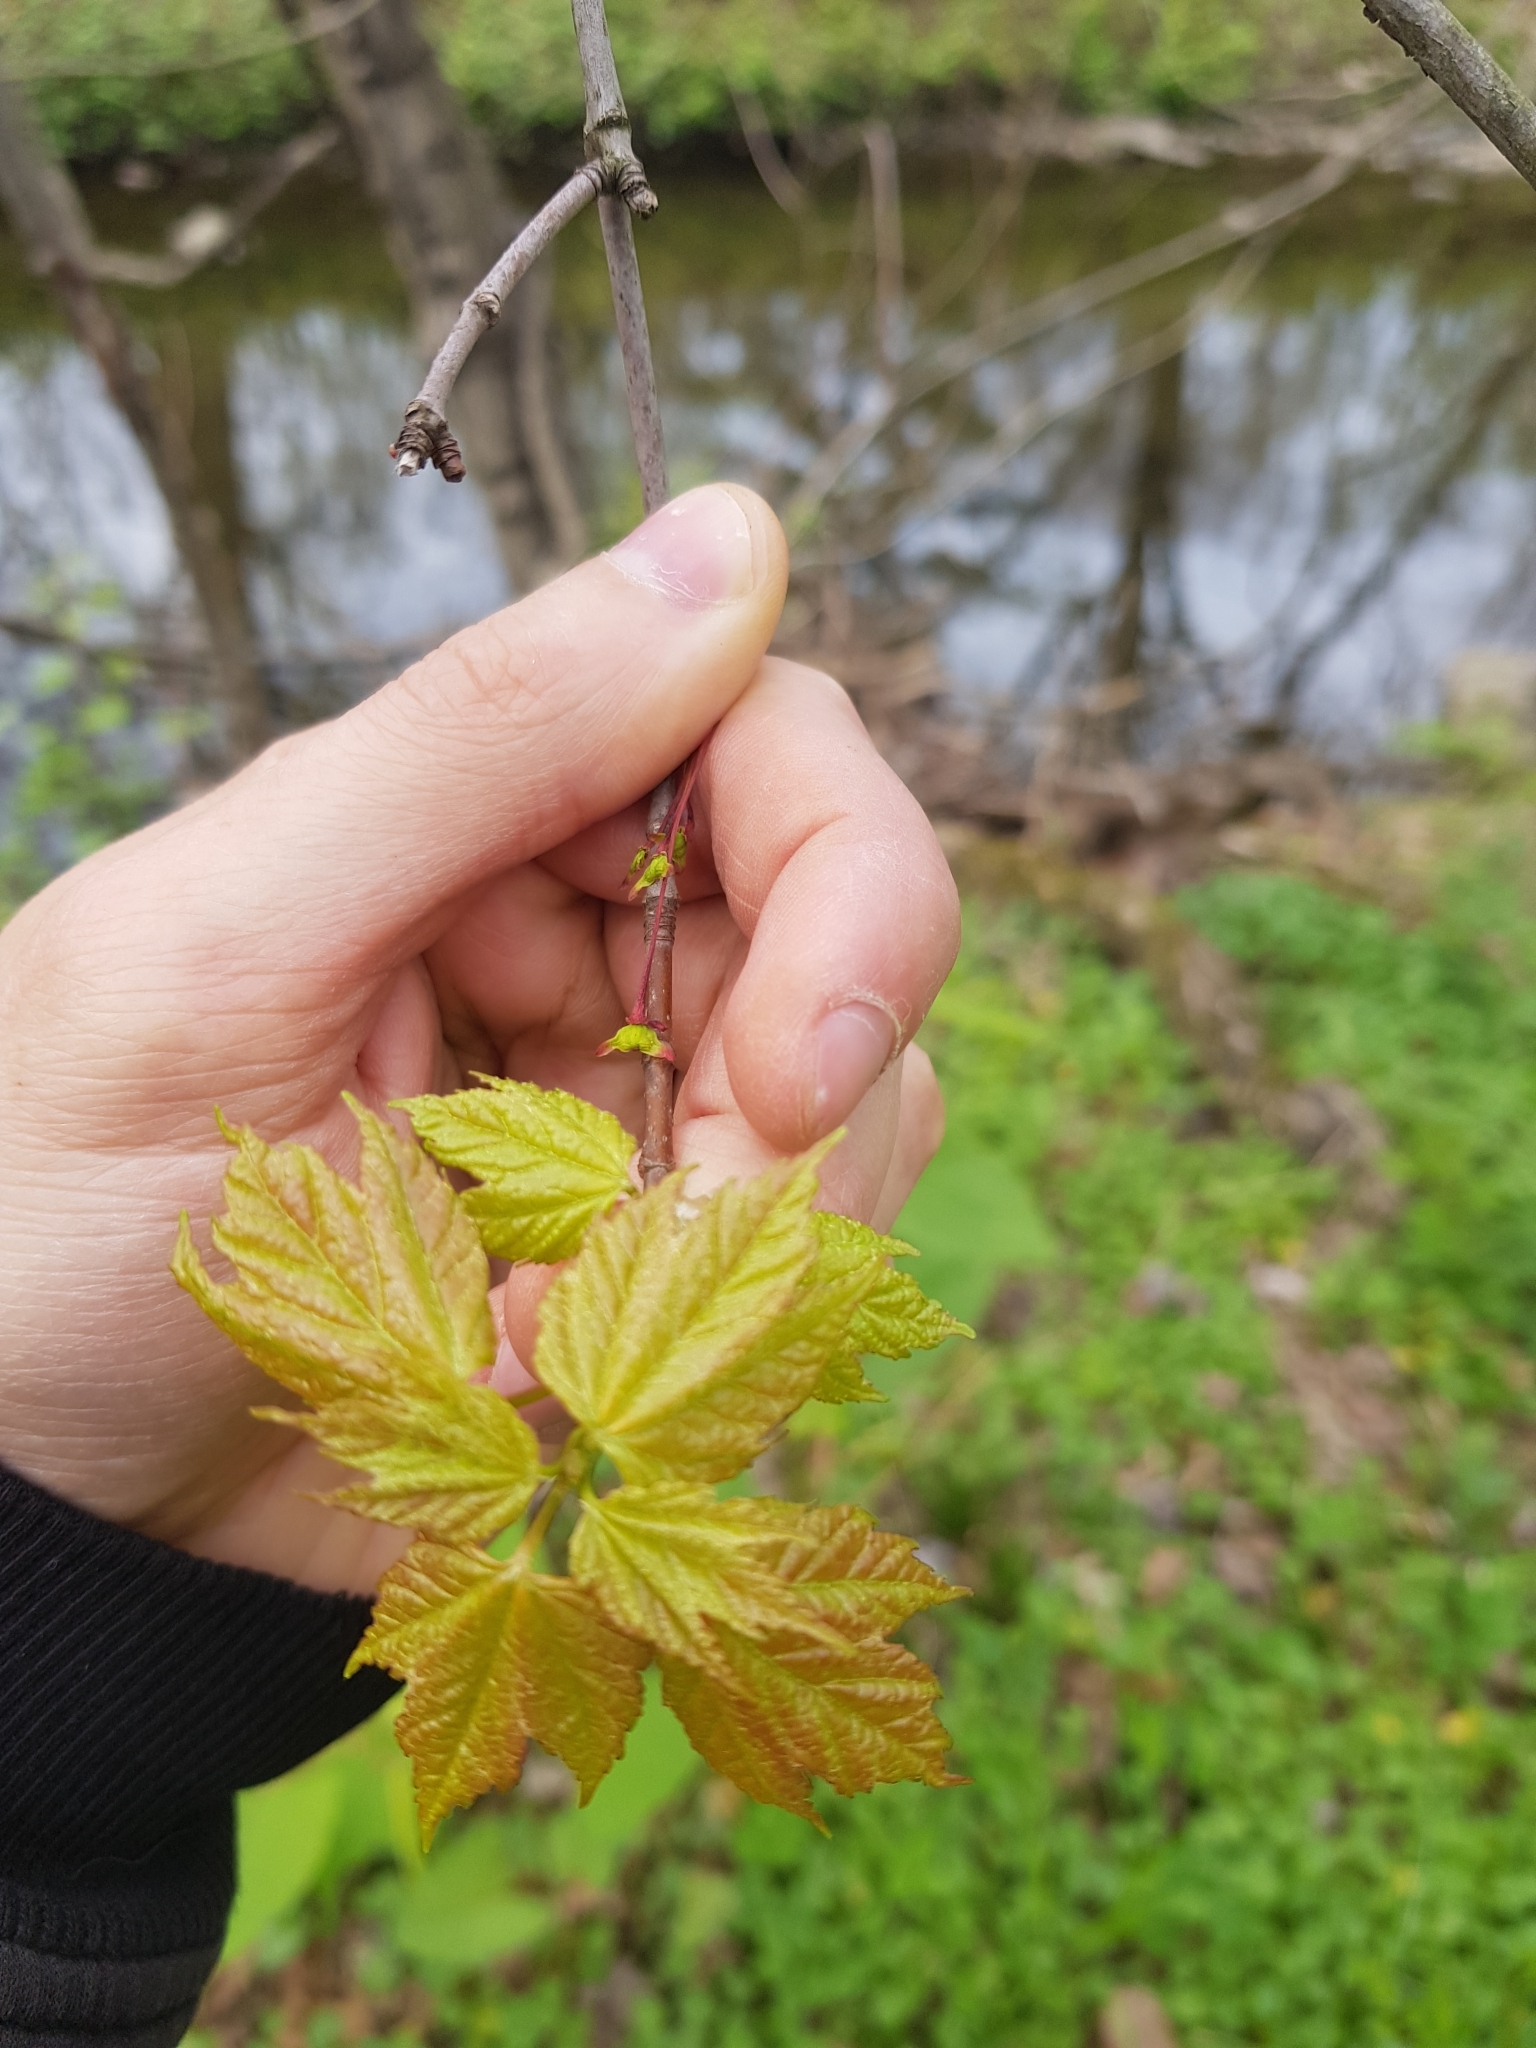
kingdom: Plantae
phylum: Tracheophyta
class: Magnoliopsida
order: Sapindales
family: Sapindaceae
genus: Acer
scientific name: Acer rubrum
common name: Red maple
